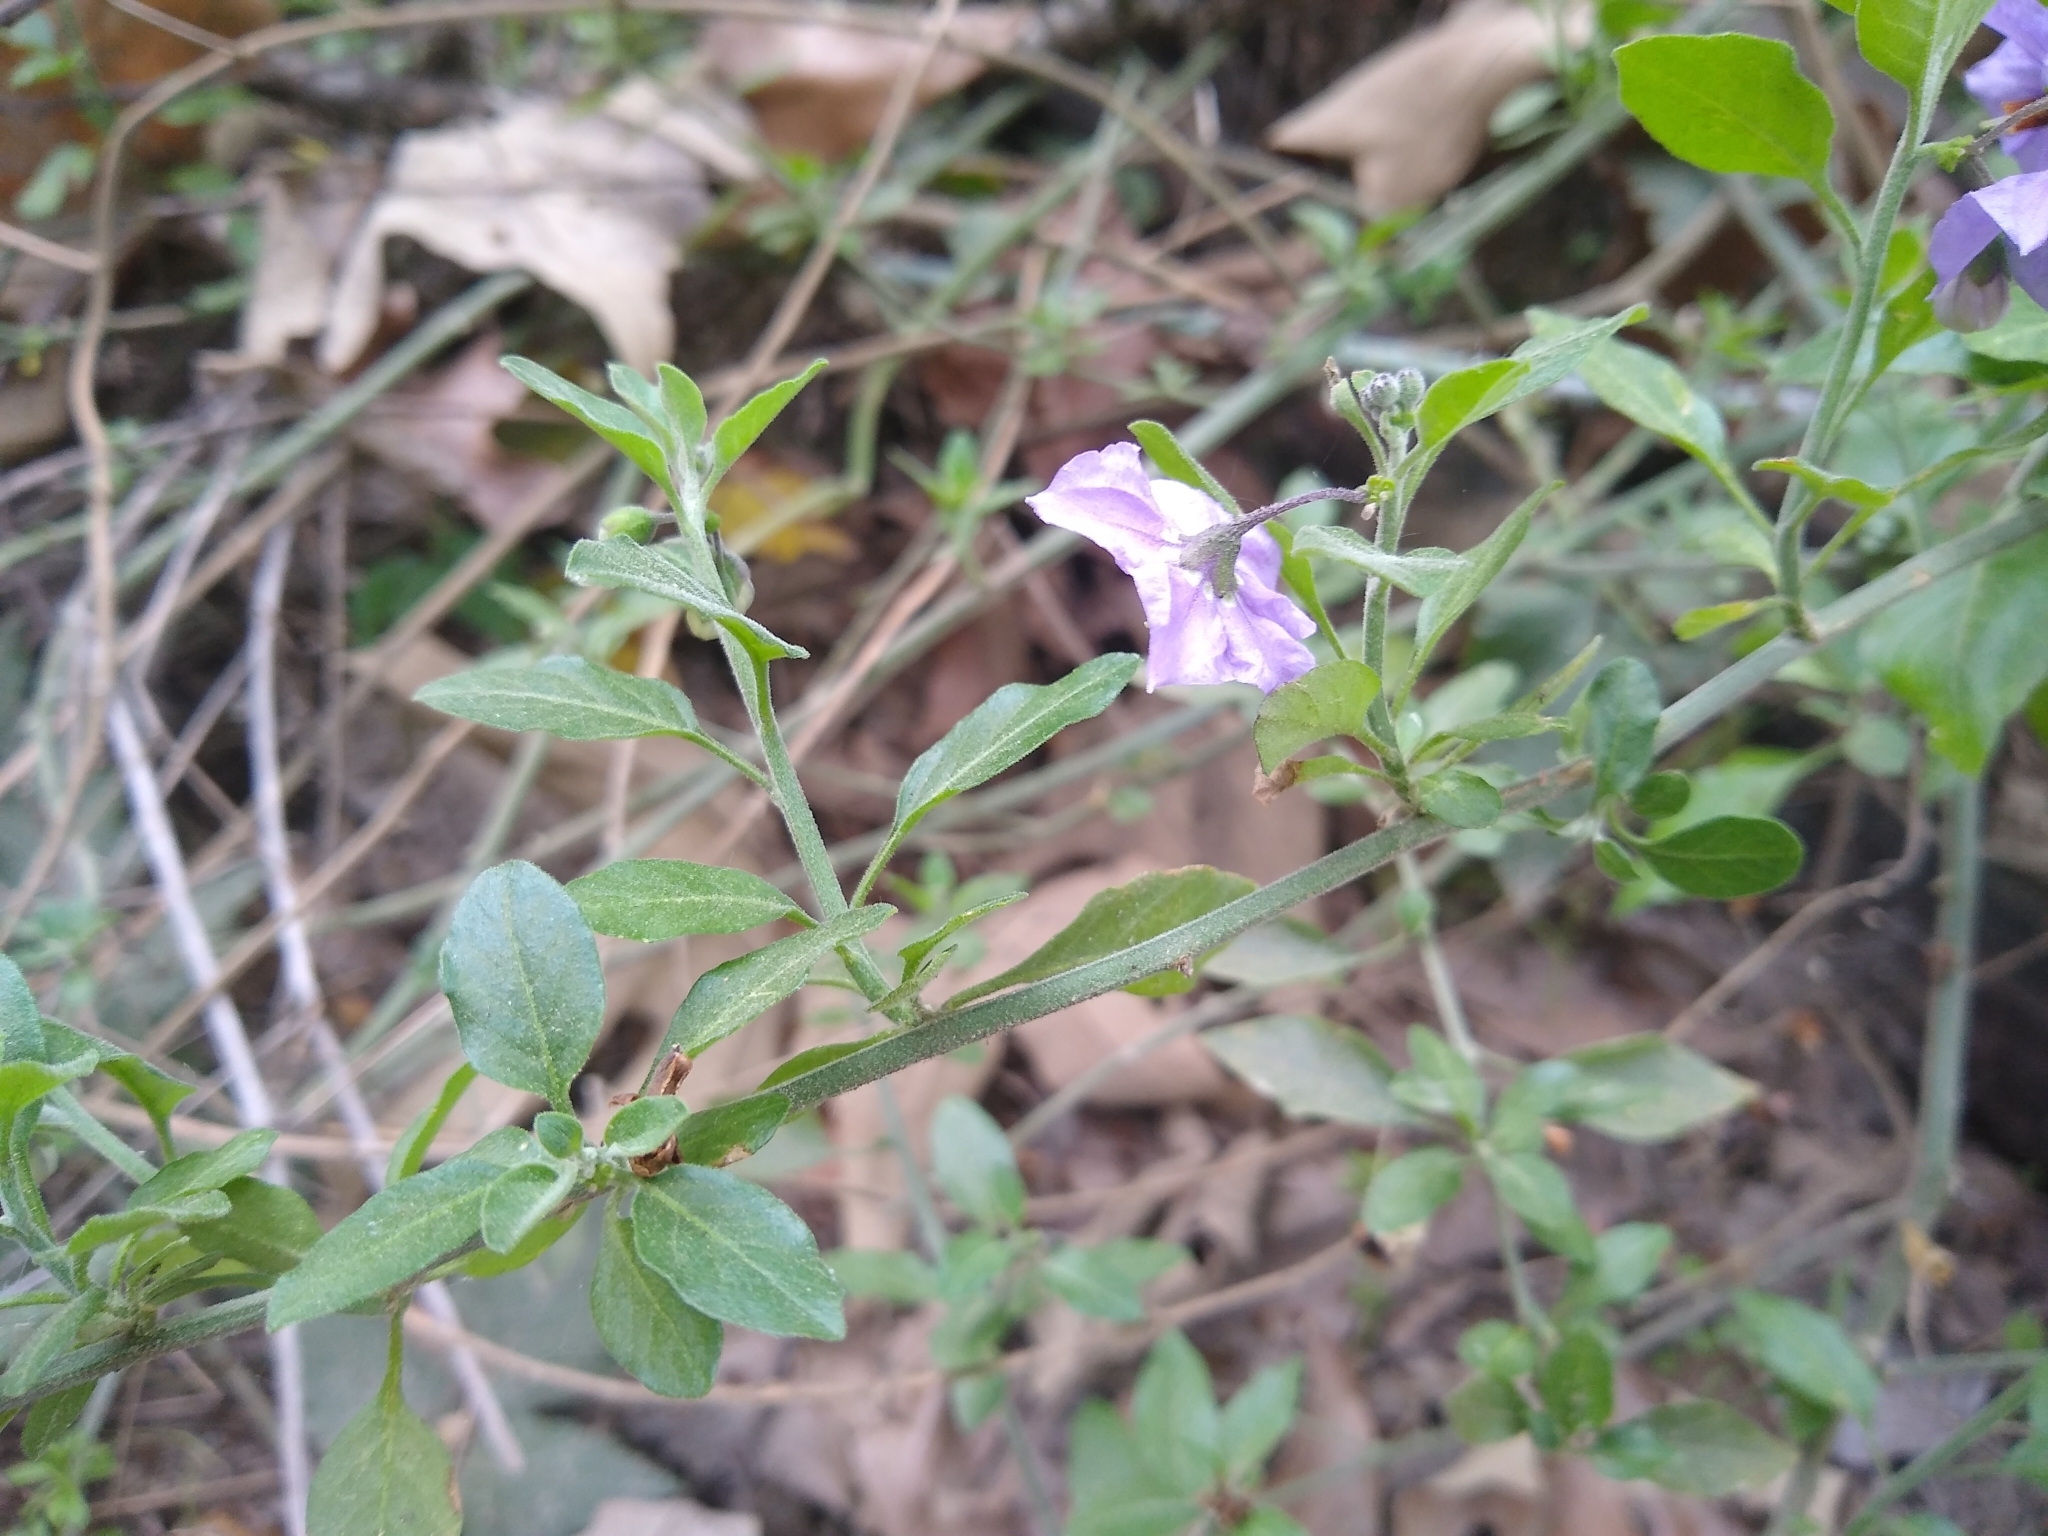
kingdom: Plantae
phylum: Tracheophyta
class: Magnoliopsida
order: Solanales
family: Solanaceae
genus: Solanum
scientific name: Solanum umbelliferum
